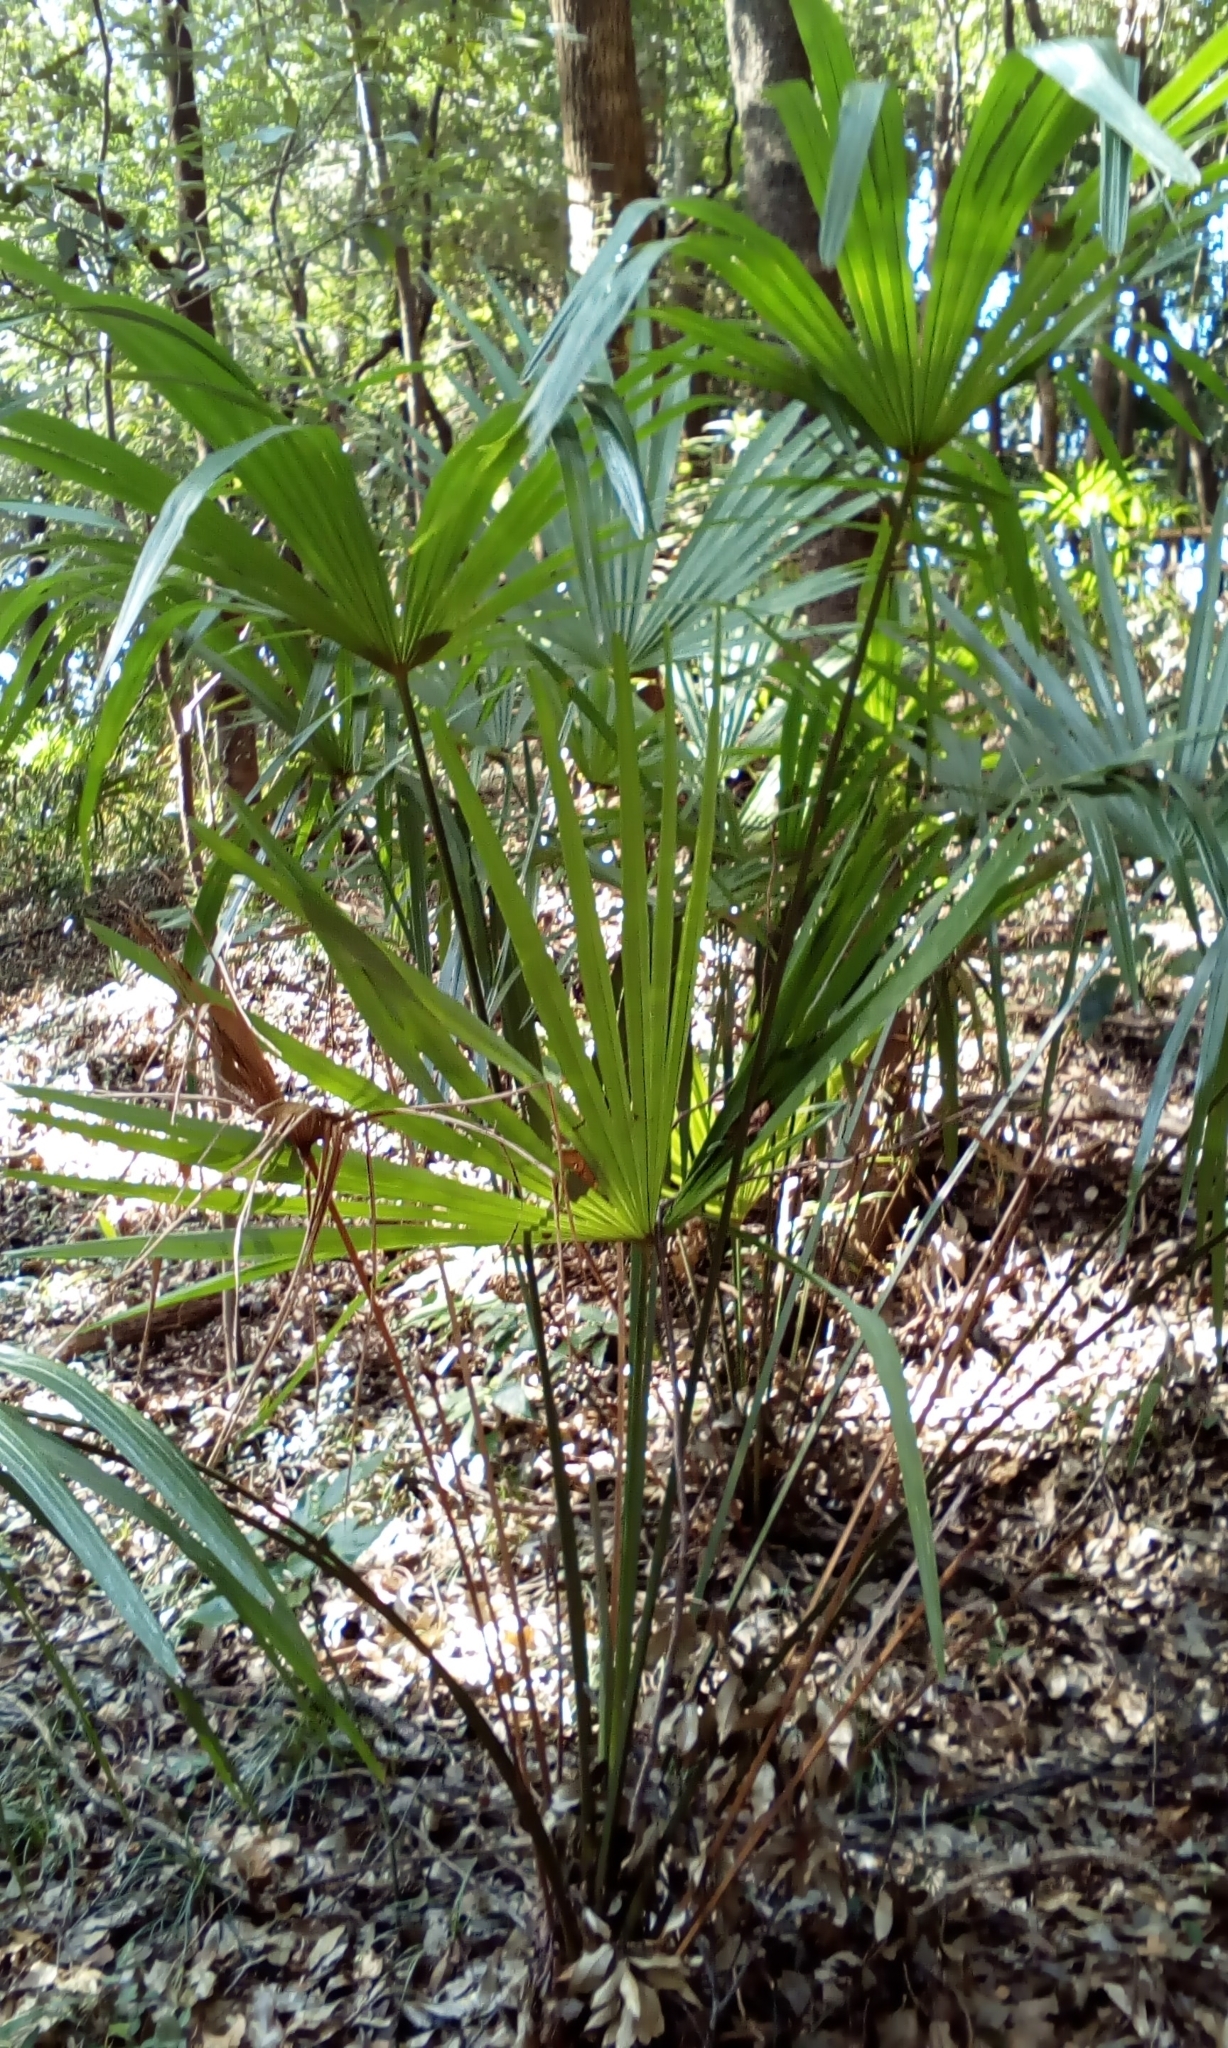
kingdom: Plantae
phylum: Tracheophyta
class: Liliopsida
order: Arecales
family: Arecaceae
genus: Trachycarpus
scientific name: Trachycarpus fortunei
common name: Chusan palm
